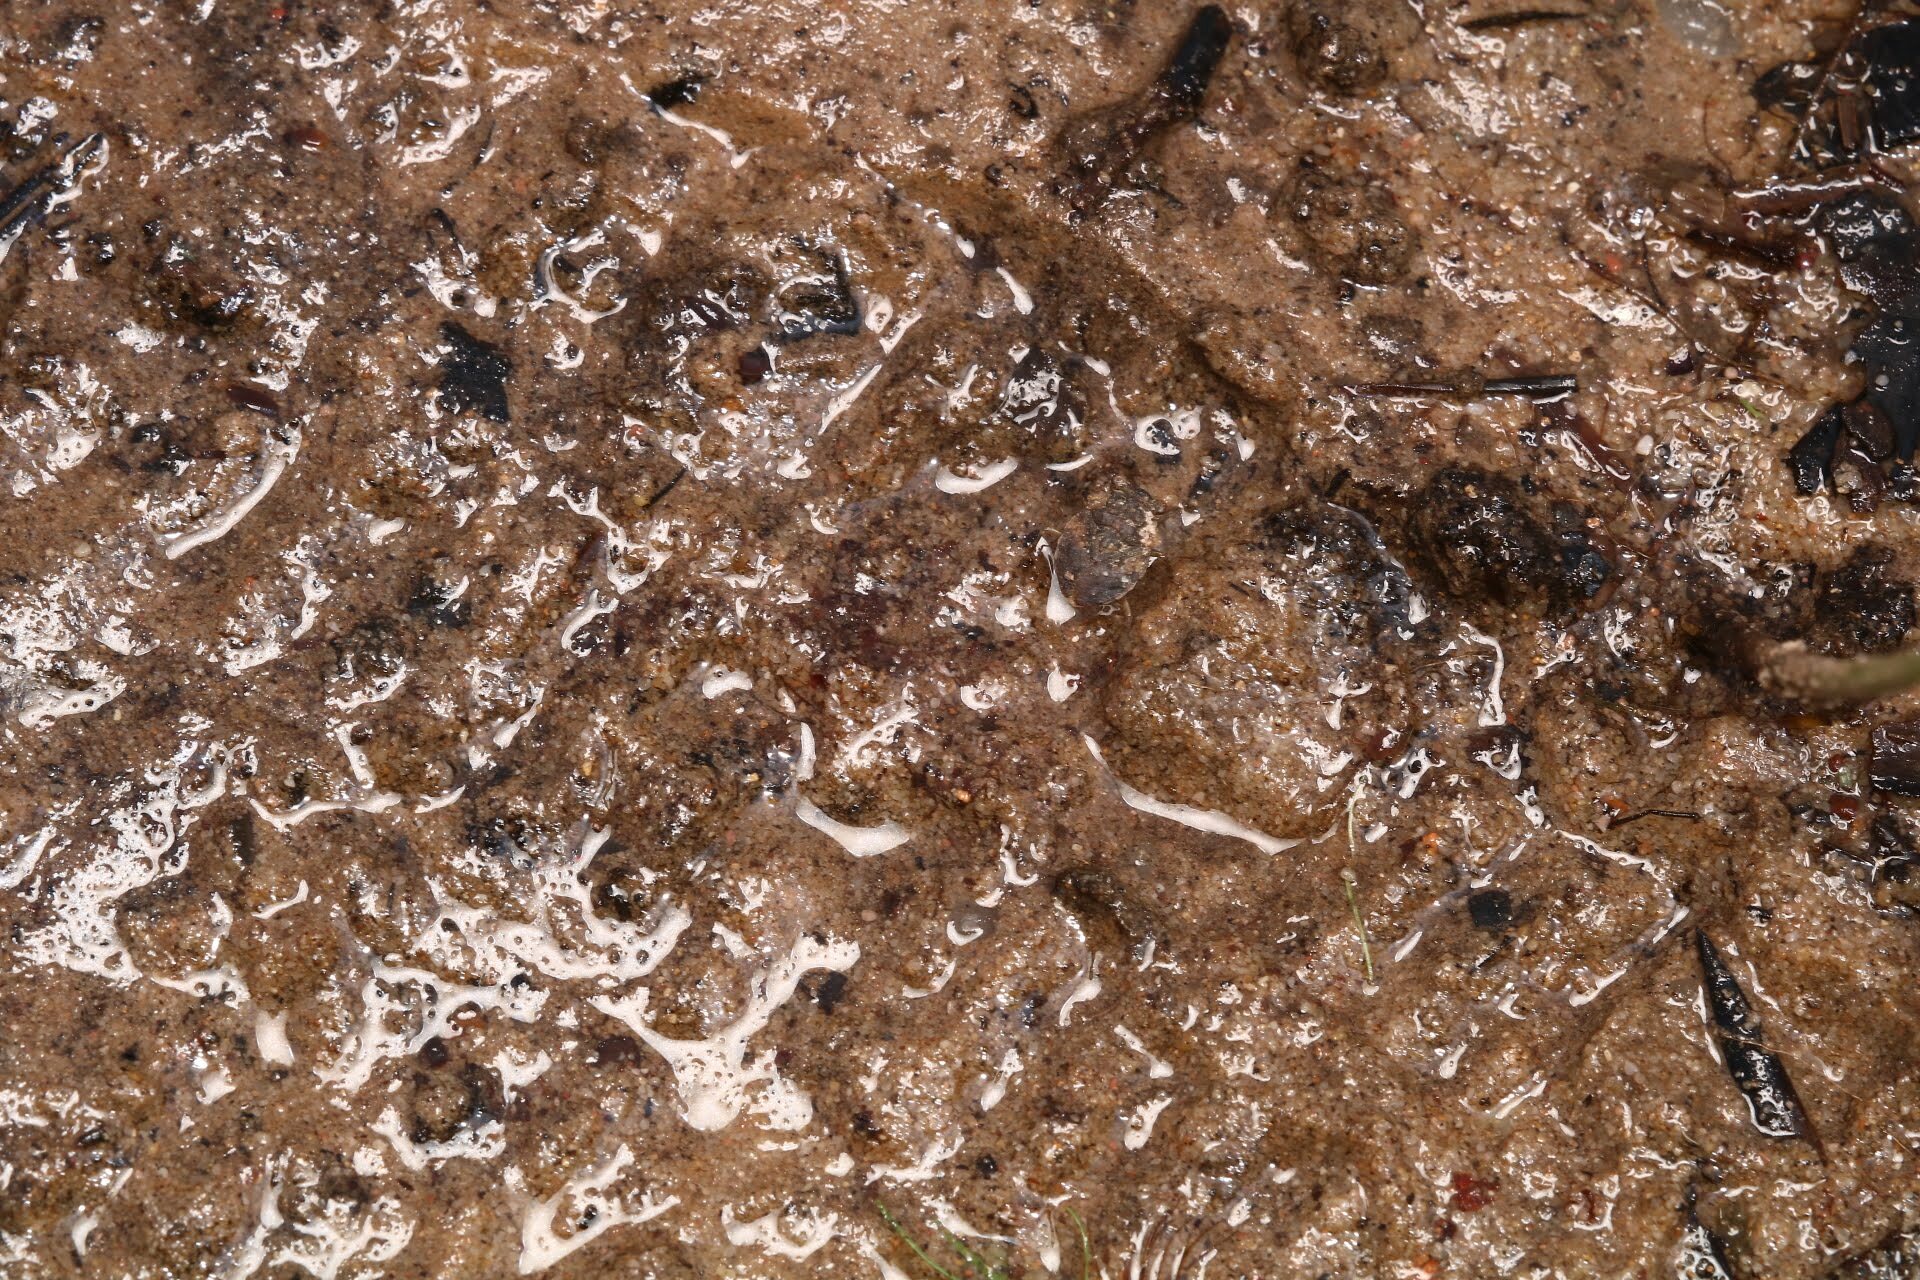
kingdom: Animalia
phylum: Arthropoda
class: Insecta
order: Hemiptera
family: Gelastocoridae
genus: Gelastocoris
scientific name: Gelastocoris oculatus
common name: Toad bug
